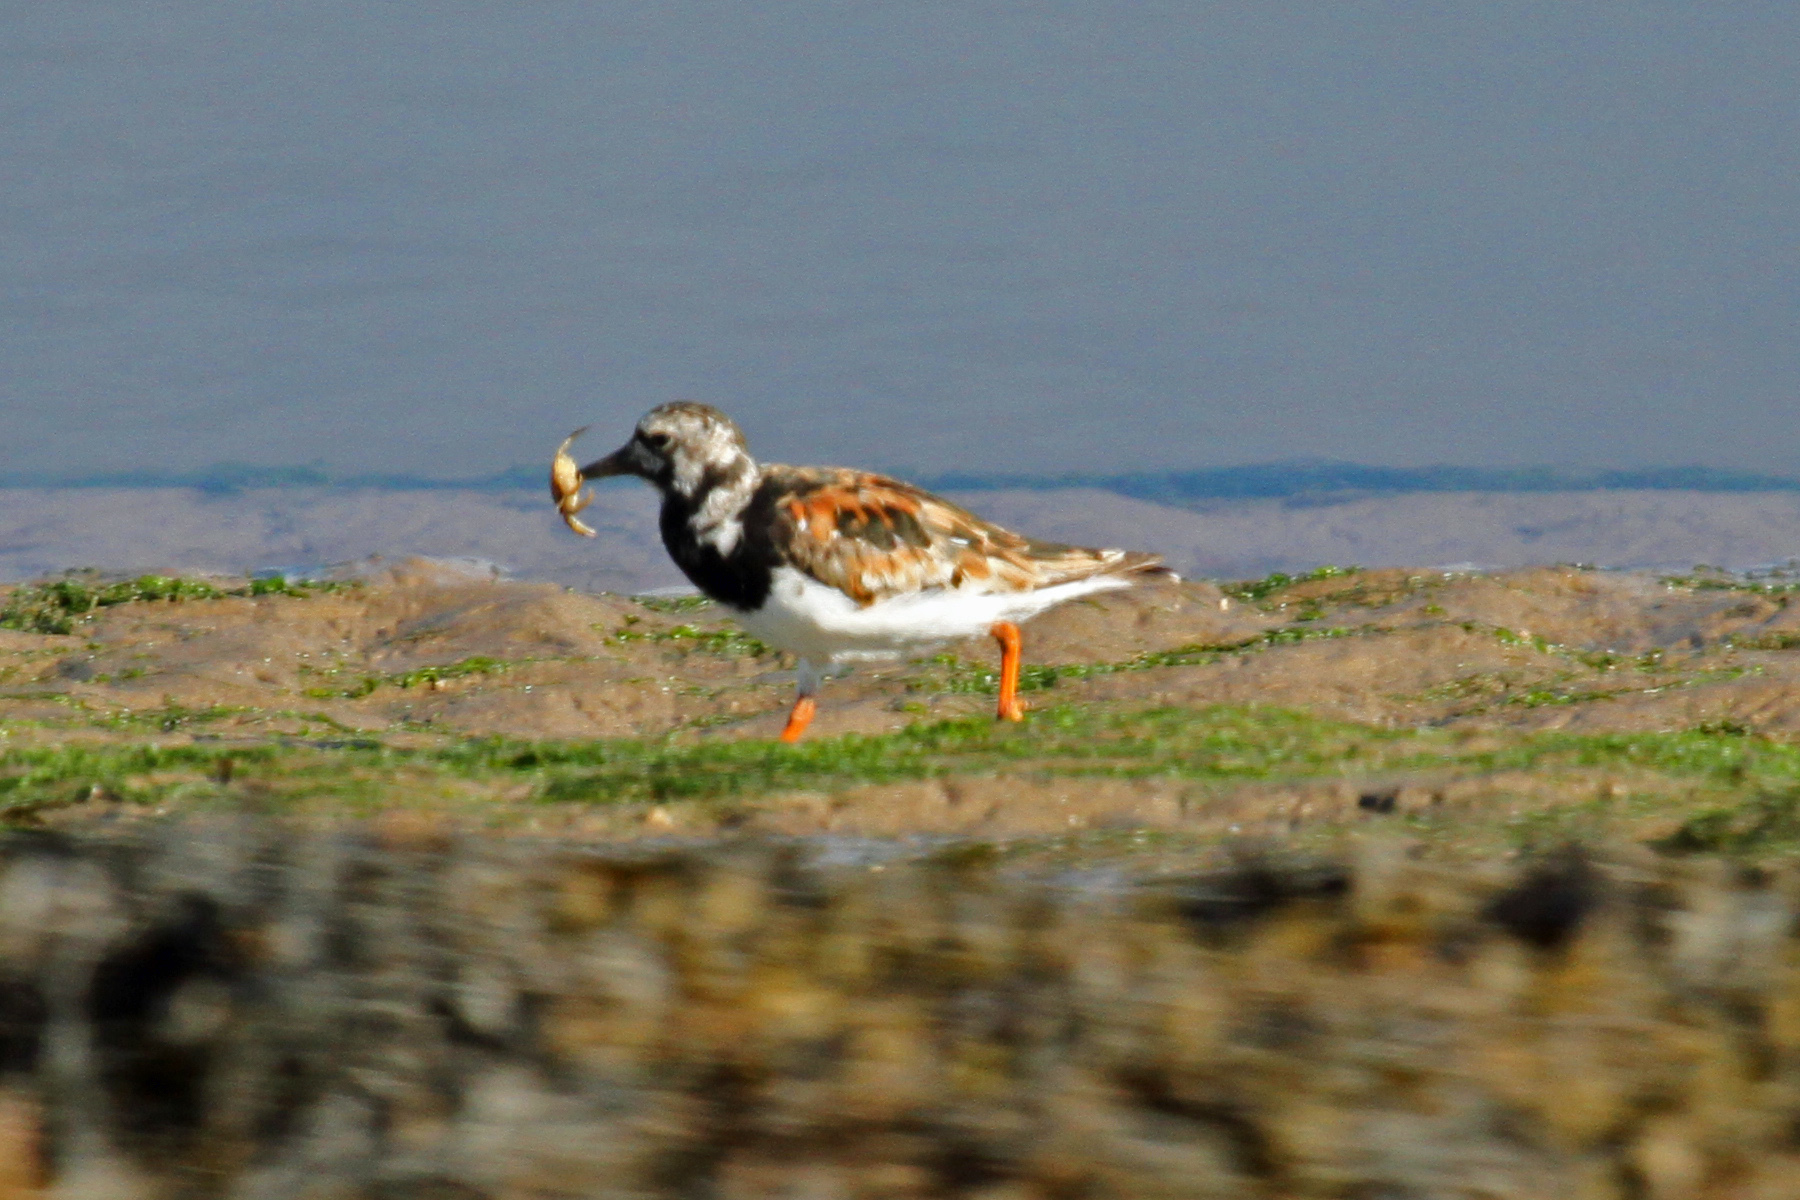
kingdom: Animalia
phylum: Chordata
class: Aves
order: Charadriiformes
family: Scolopacidae
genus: Arenaria
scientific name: Arenaria interpres
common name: Ruddy turnstone
